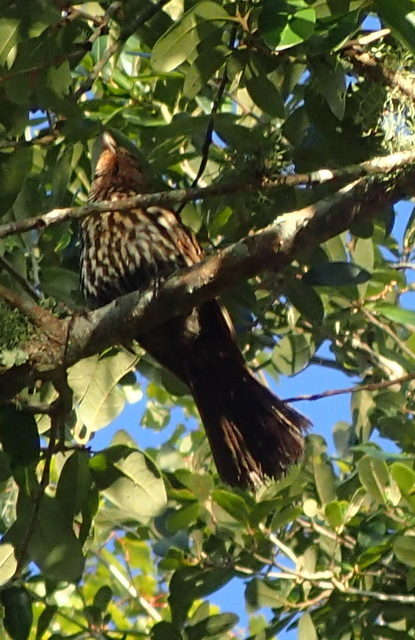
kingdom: Animalia
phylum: Chordata
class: Aves
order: Passeriformes
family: Icteridae
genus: Agelaius
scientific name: Agelaius phoeniceus
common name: Red-winged blackbird
